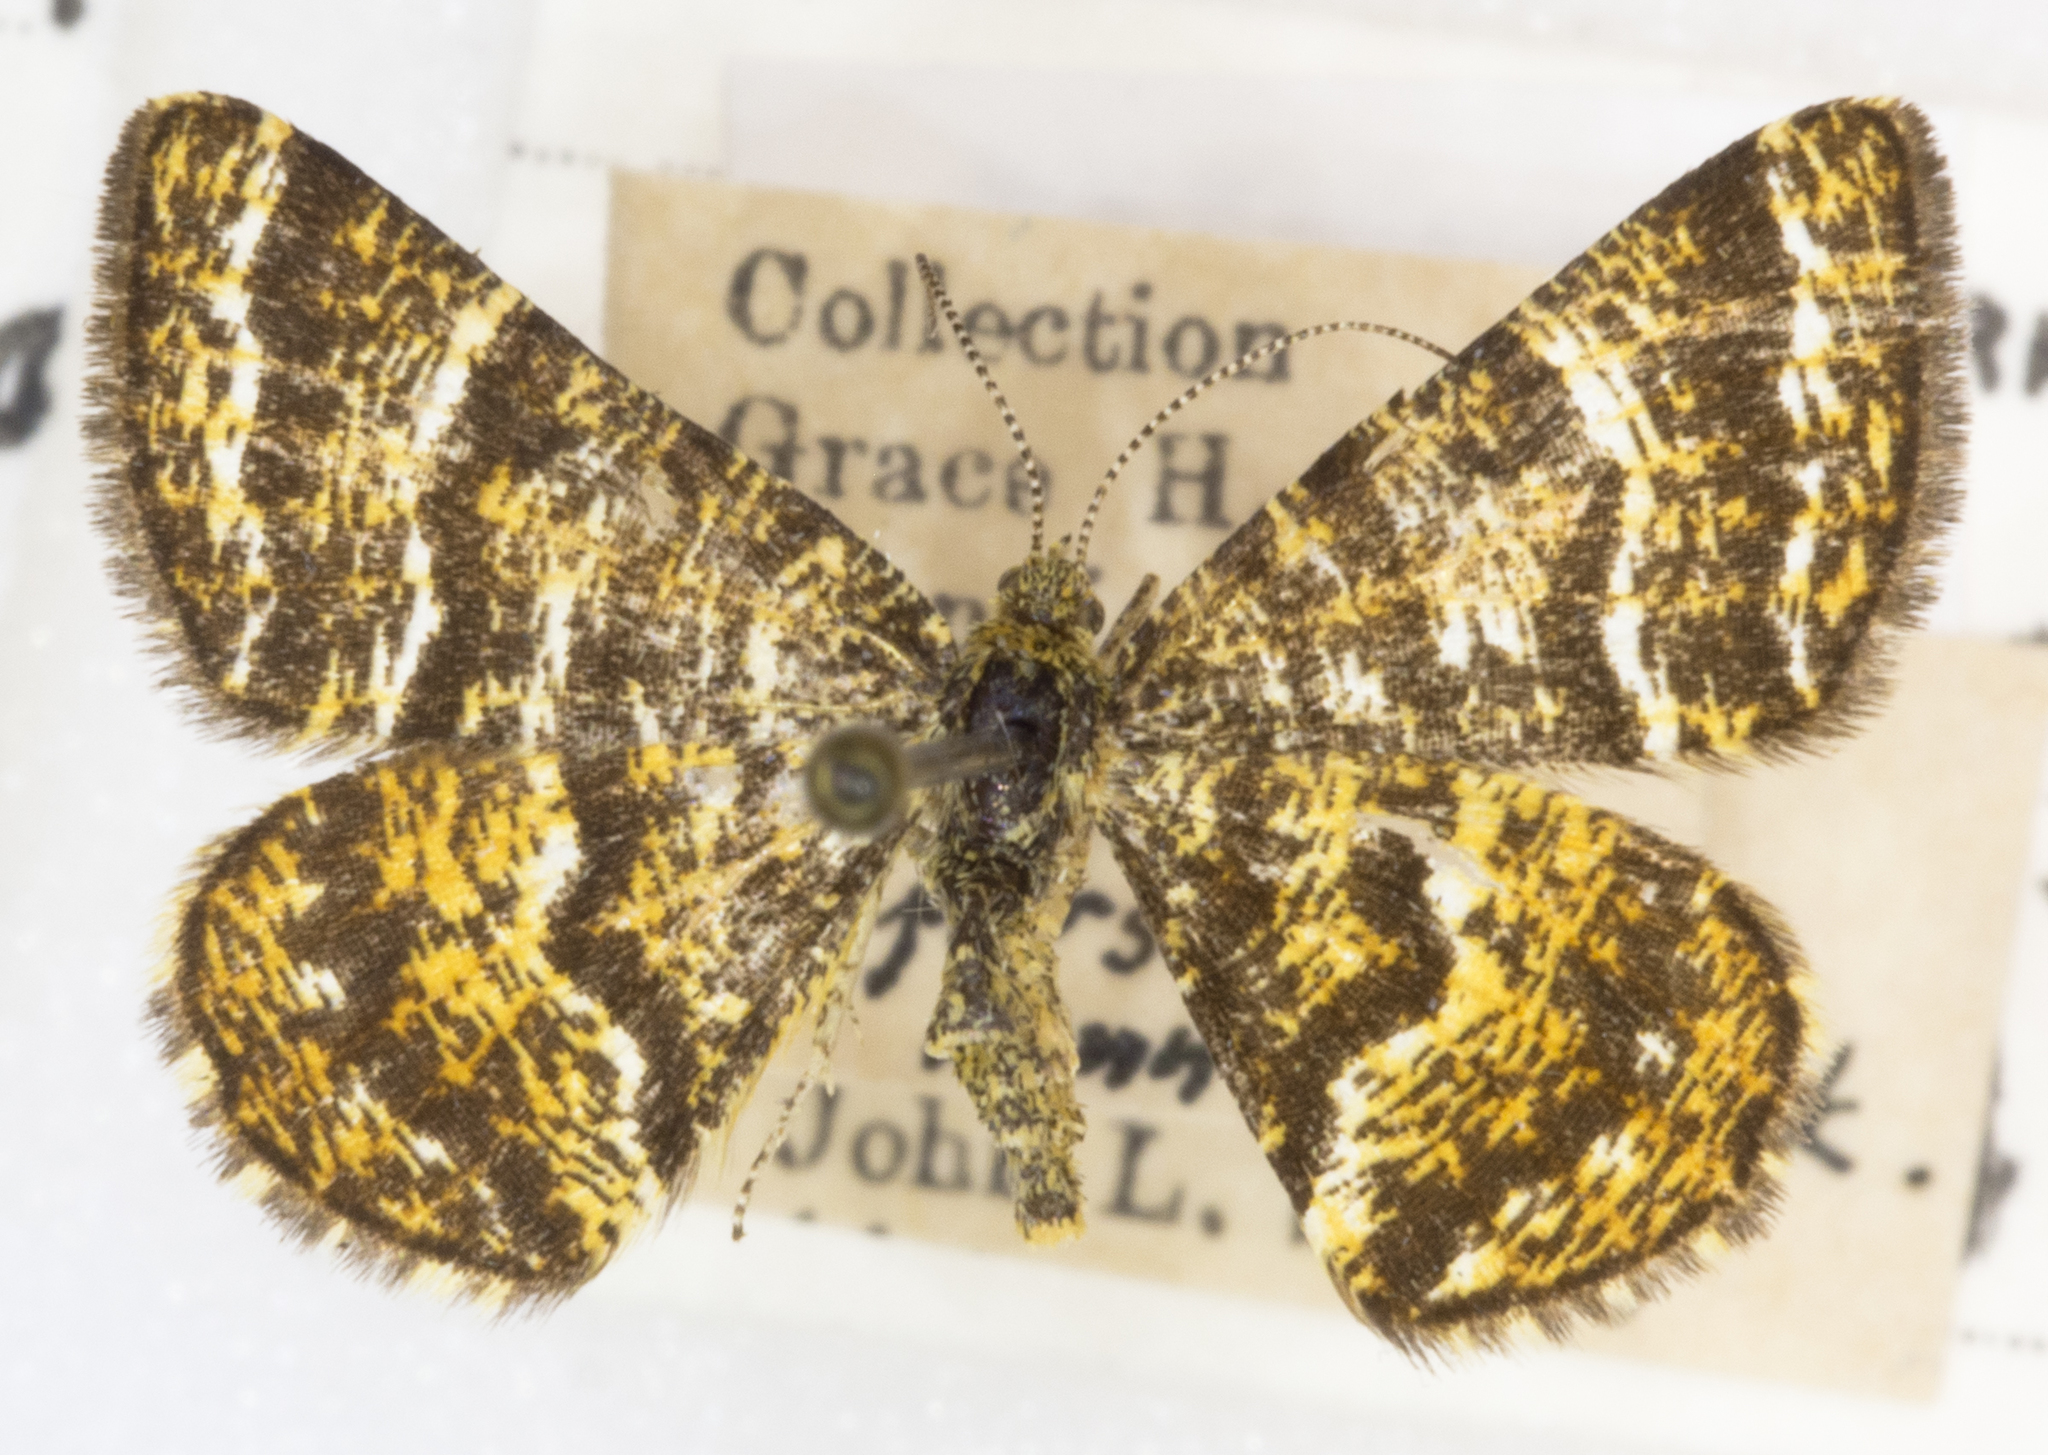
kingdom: Animalia
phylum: Arthropoda
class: Insecta
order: Lepidoptera
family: Geometridae
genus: Macaria
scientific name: Macaria truncataria
